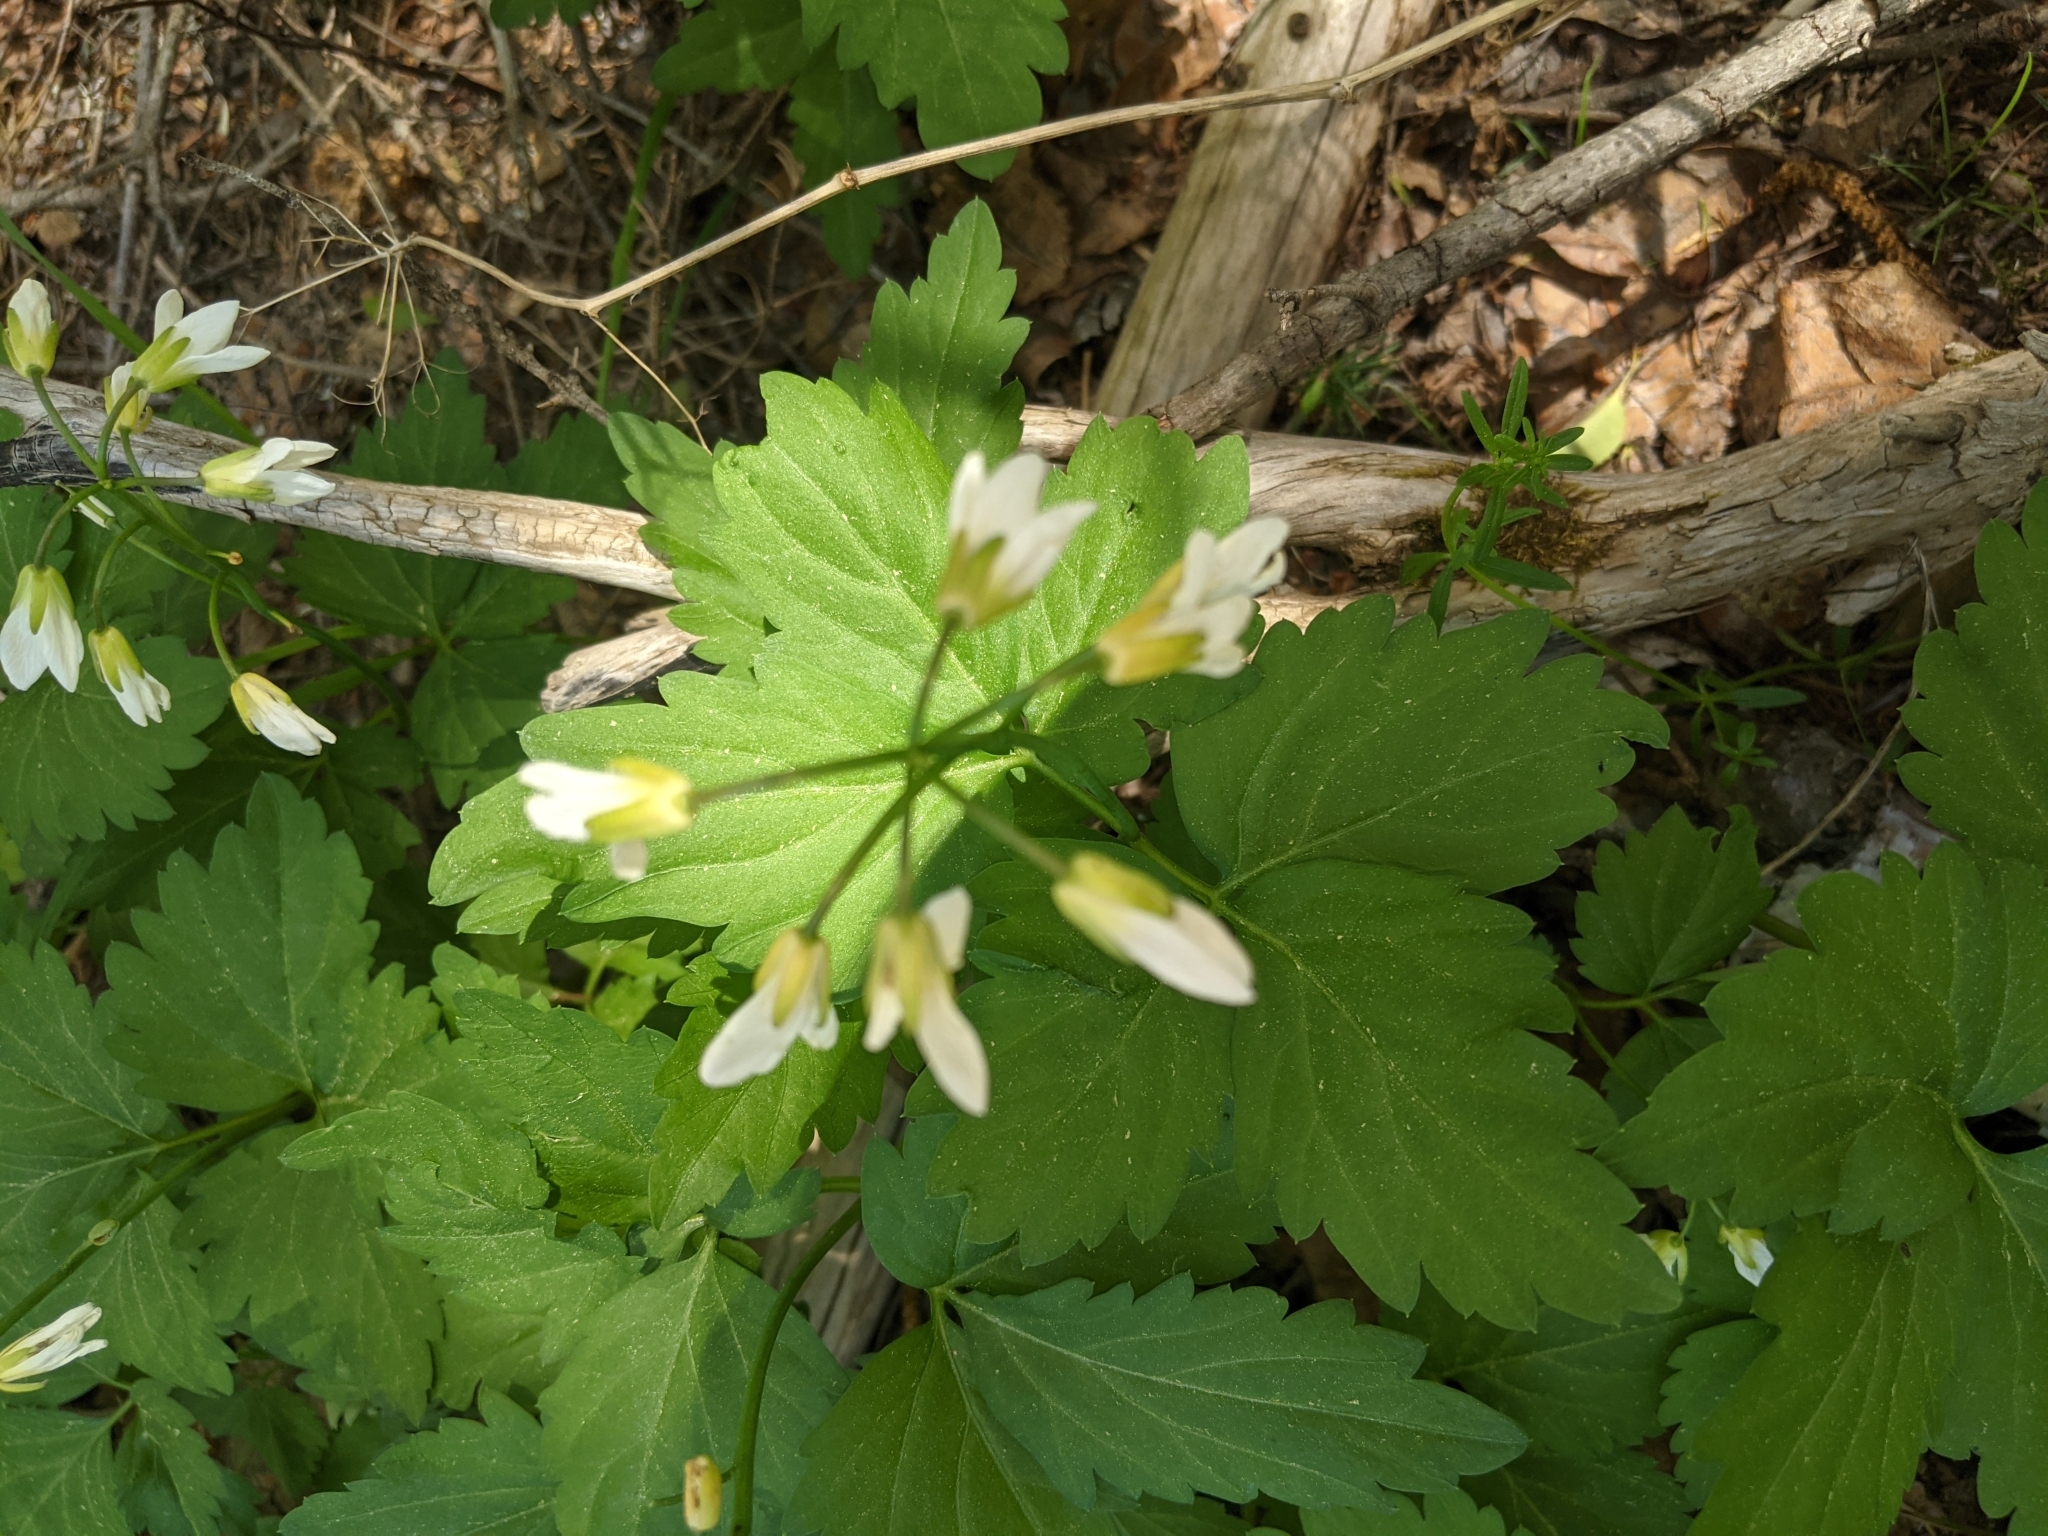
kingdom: Plantae
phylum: Tracheophyta
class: Magnoliopsida
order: Brassicales
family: Brassicaceae
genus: Cardamine
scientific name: Cardamine diphylla
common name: Broad-leaved toothwort
